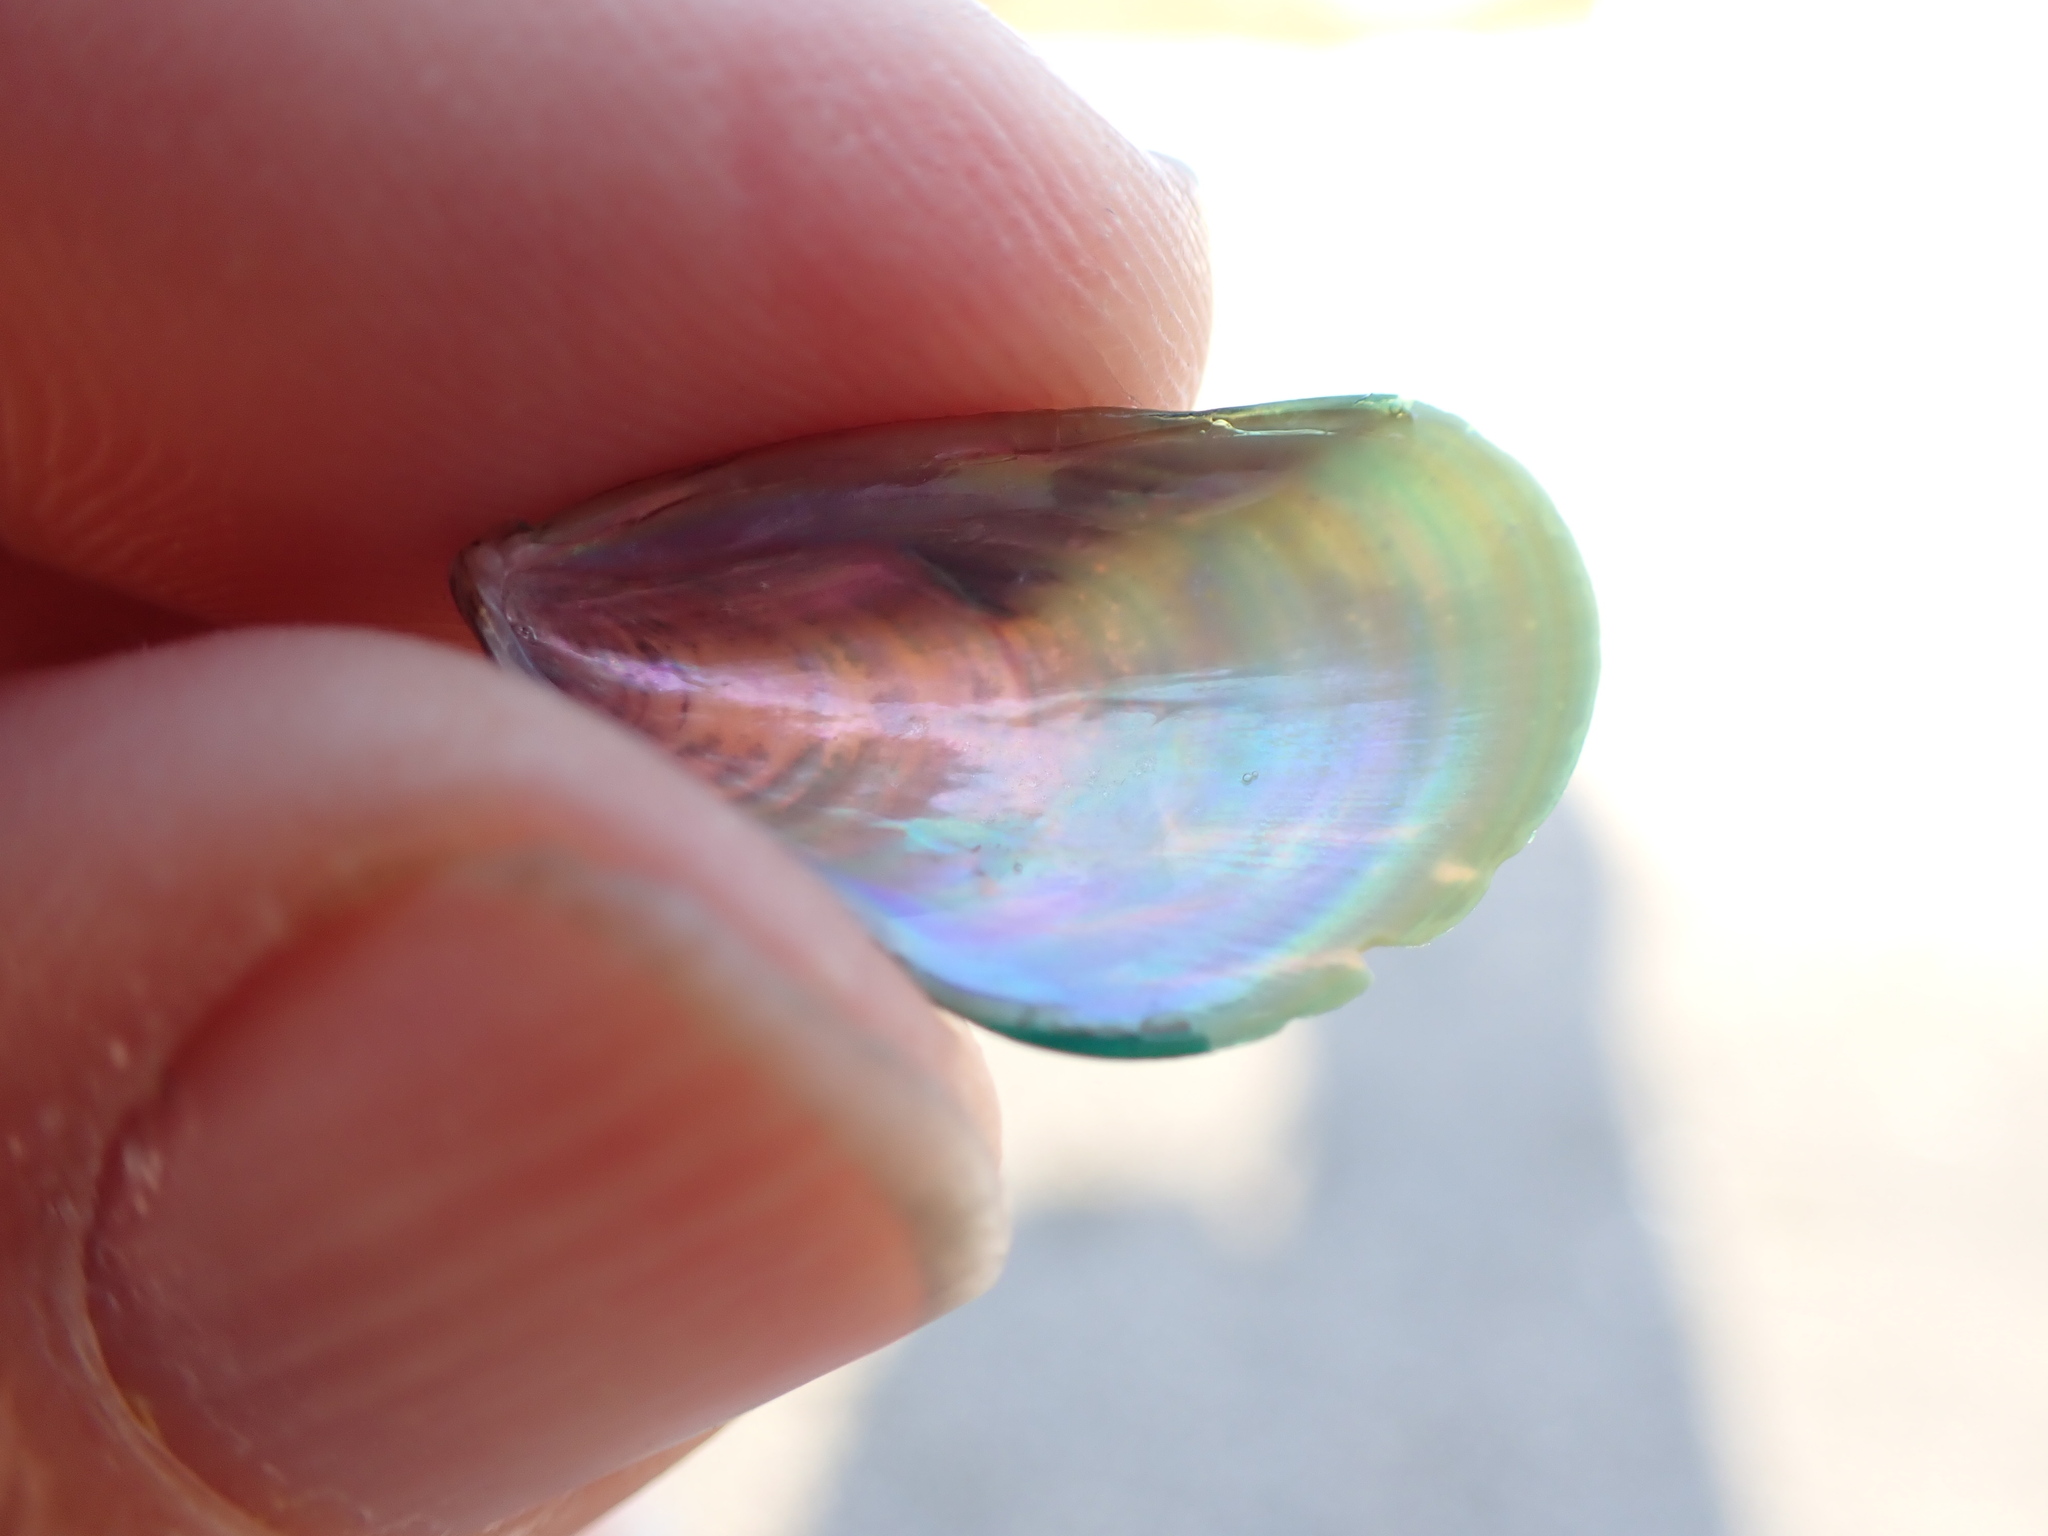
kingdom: Animalia
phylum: Mollusca
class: Bivalvia
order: Mytilida
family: Mytilidae
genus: Perna
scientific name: Perna viridis
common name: Green mussel
